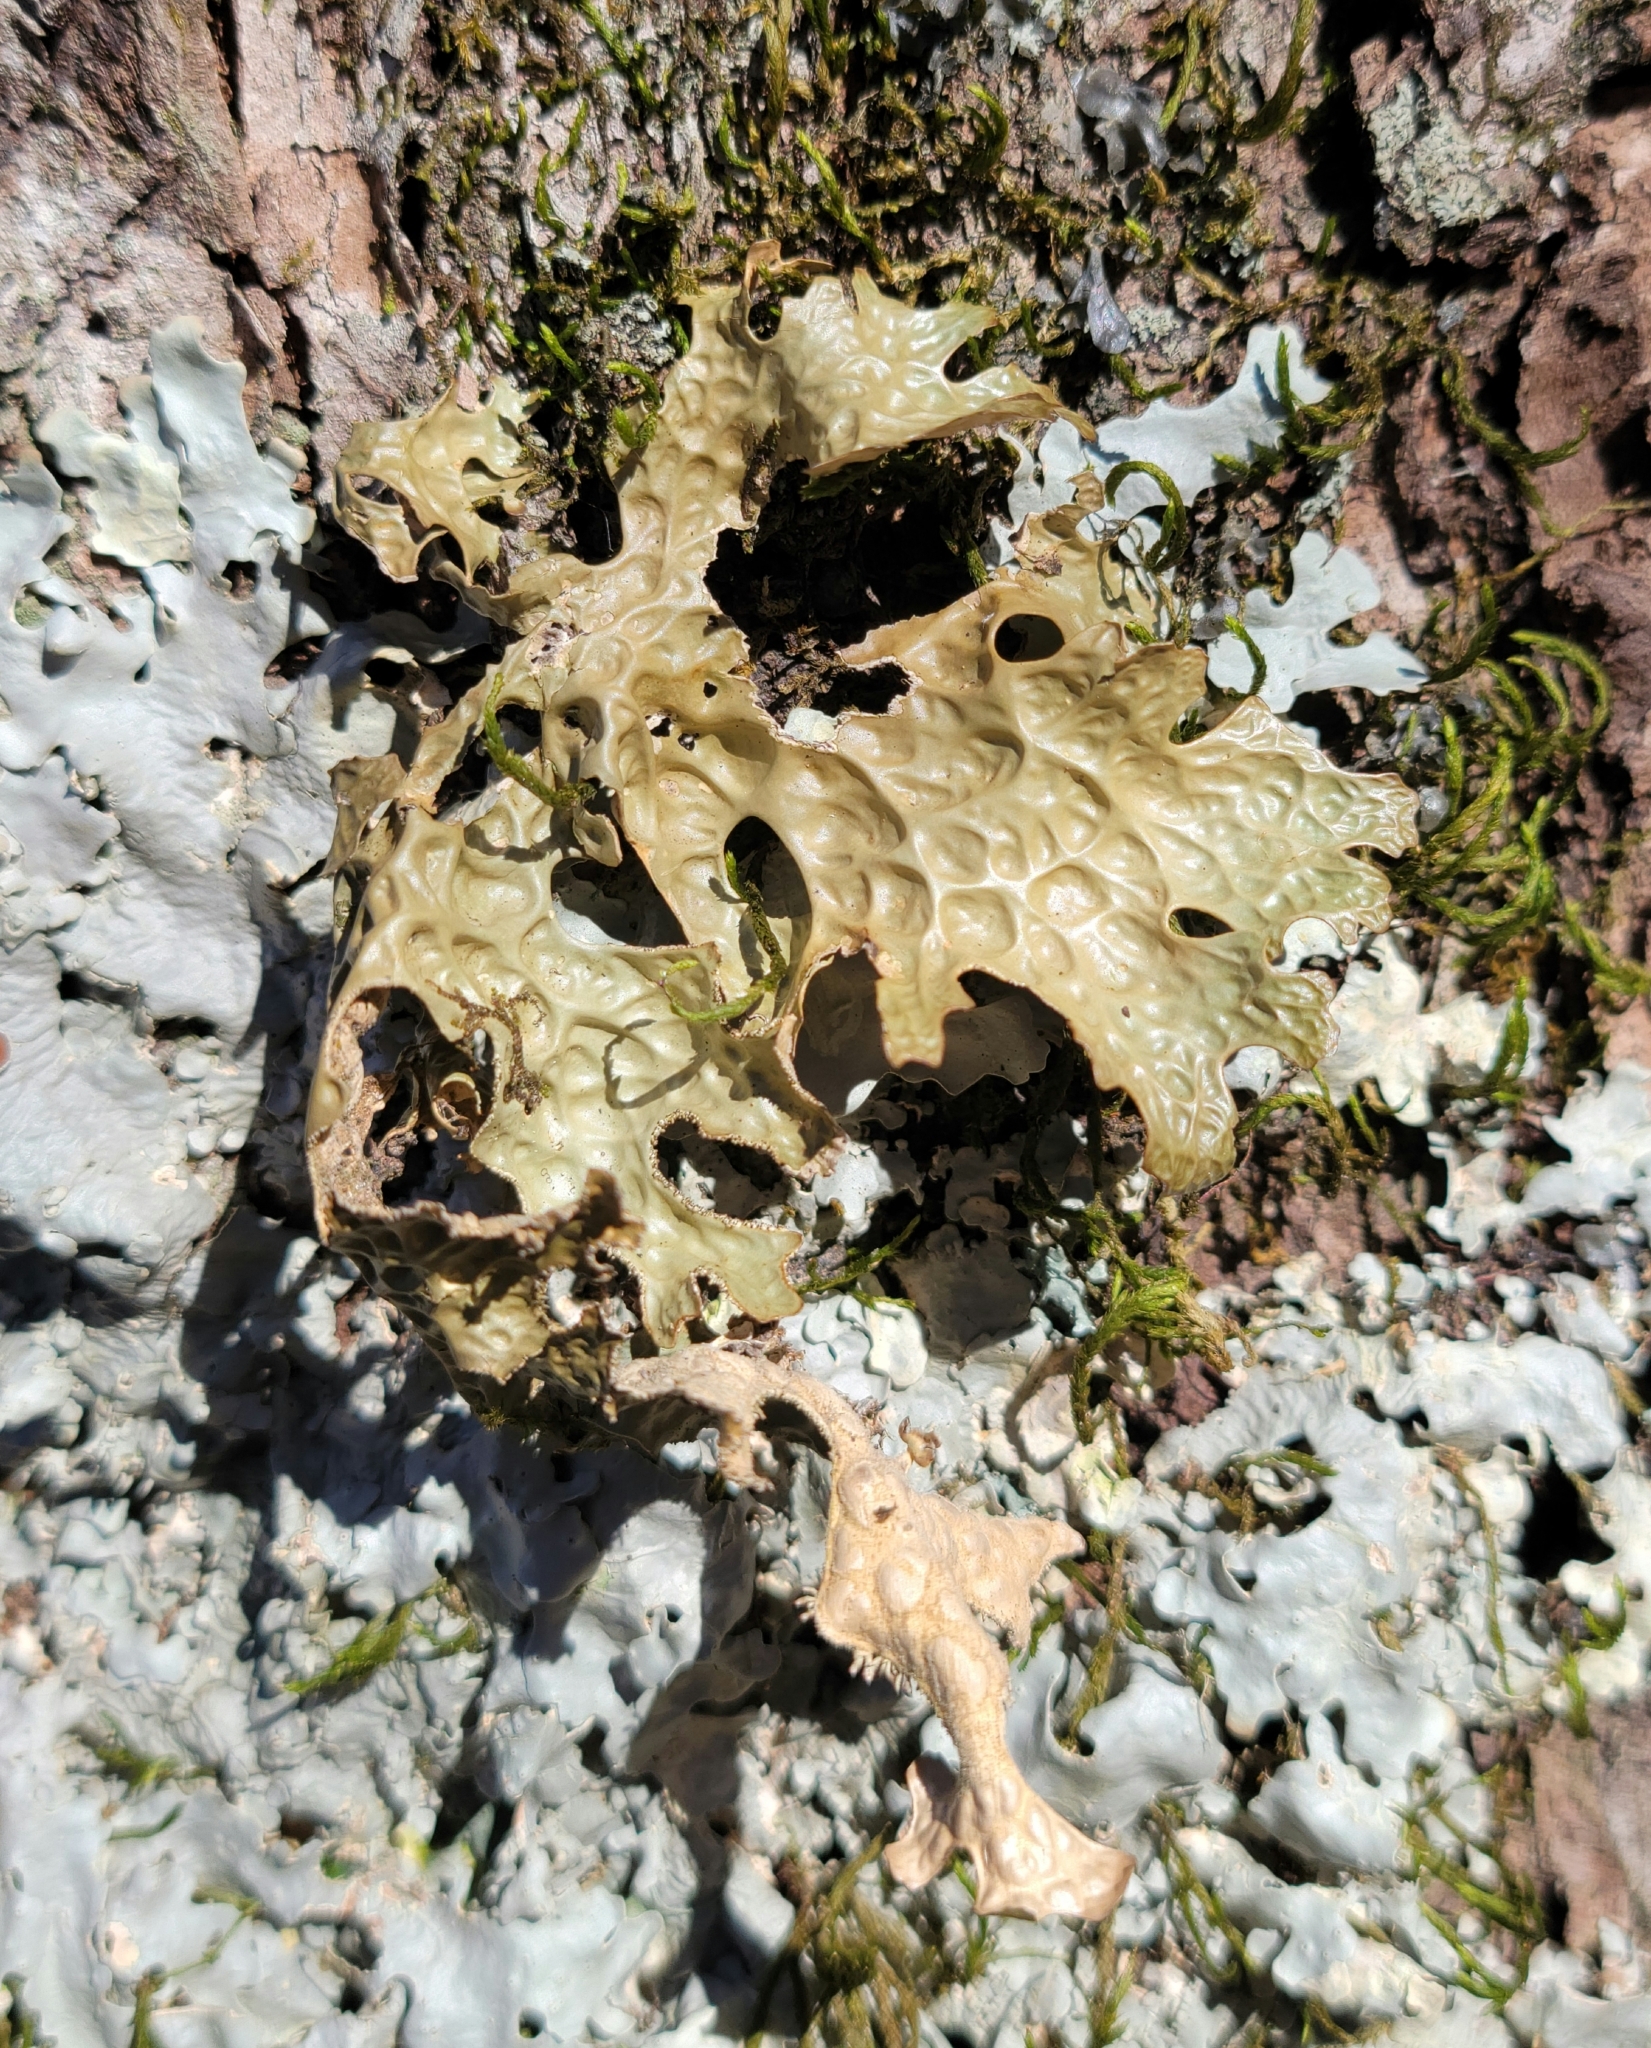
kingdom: Fungi
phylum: Ascomycota
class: Lecanoromycetes
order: Peltigerales
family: Lobariaceae
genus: Lobaria
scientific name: Lobaria pulmonaria
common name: Lungwort
